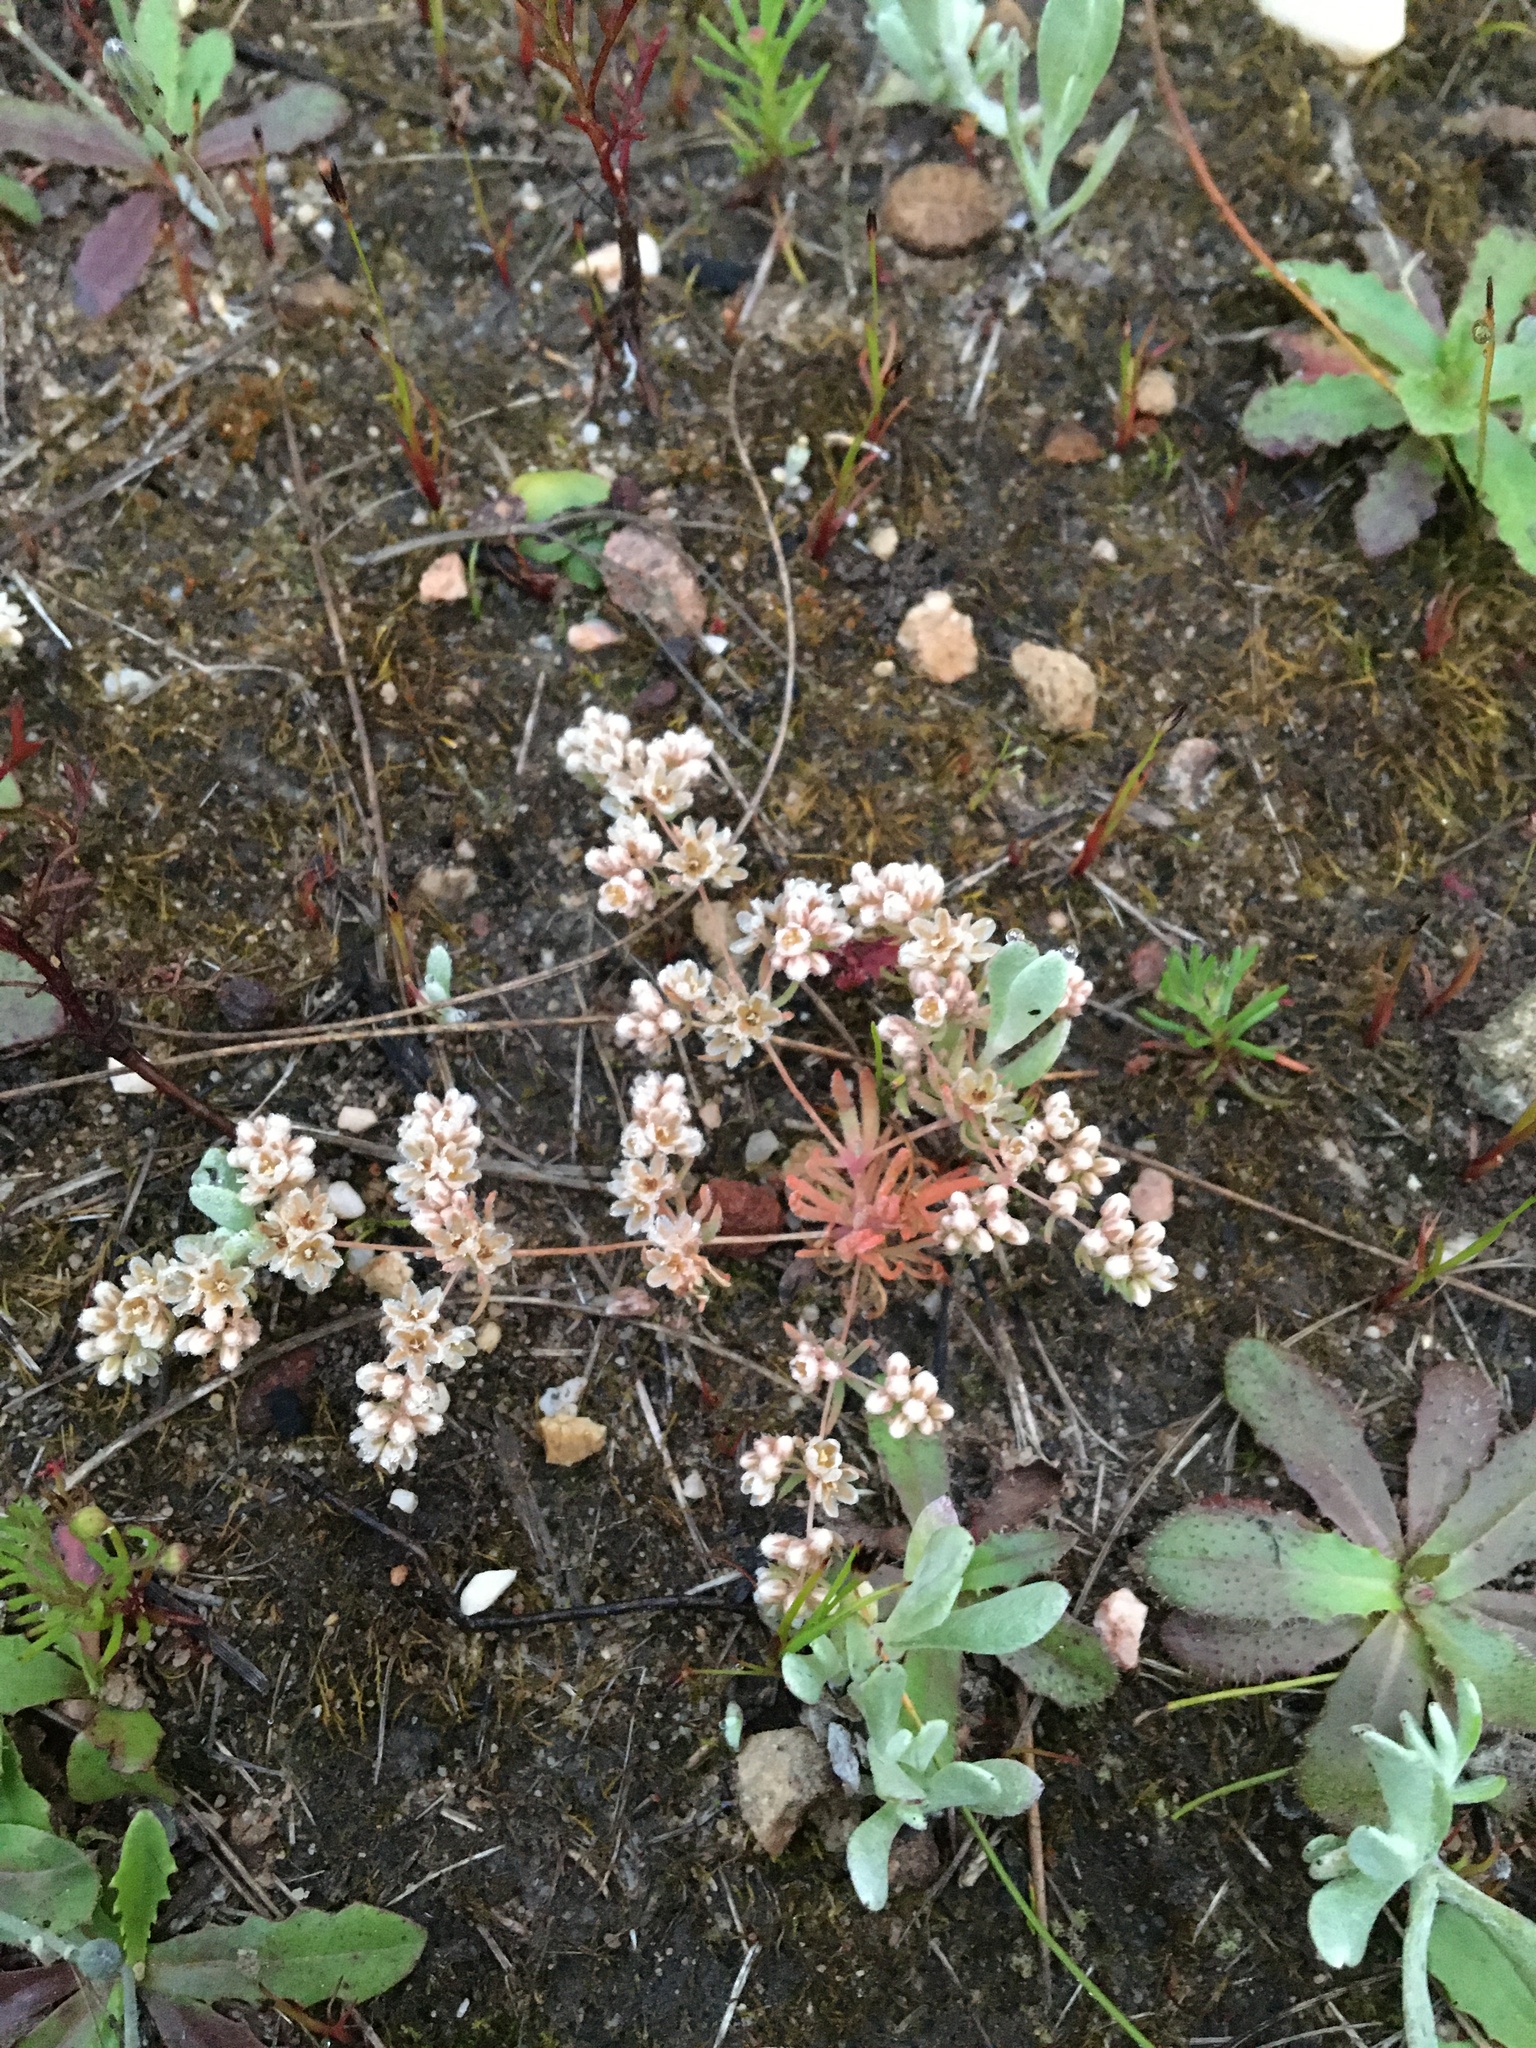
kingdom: Plantae
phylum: Tracheophyta
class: Magnoliopsida
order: Caryophyllales
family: Molluginaceae
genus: Adenogramma
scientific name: Adenogramma mollugo
